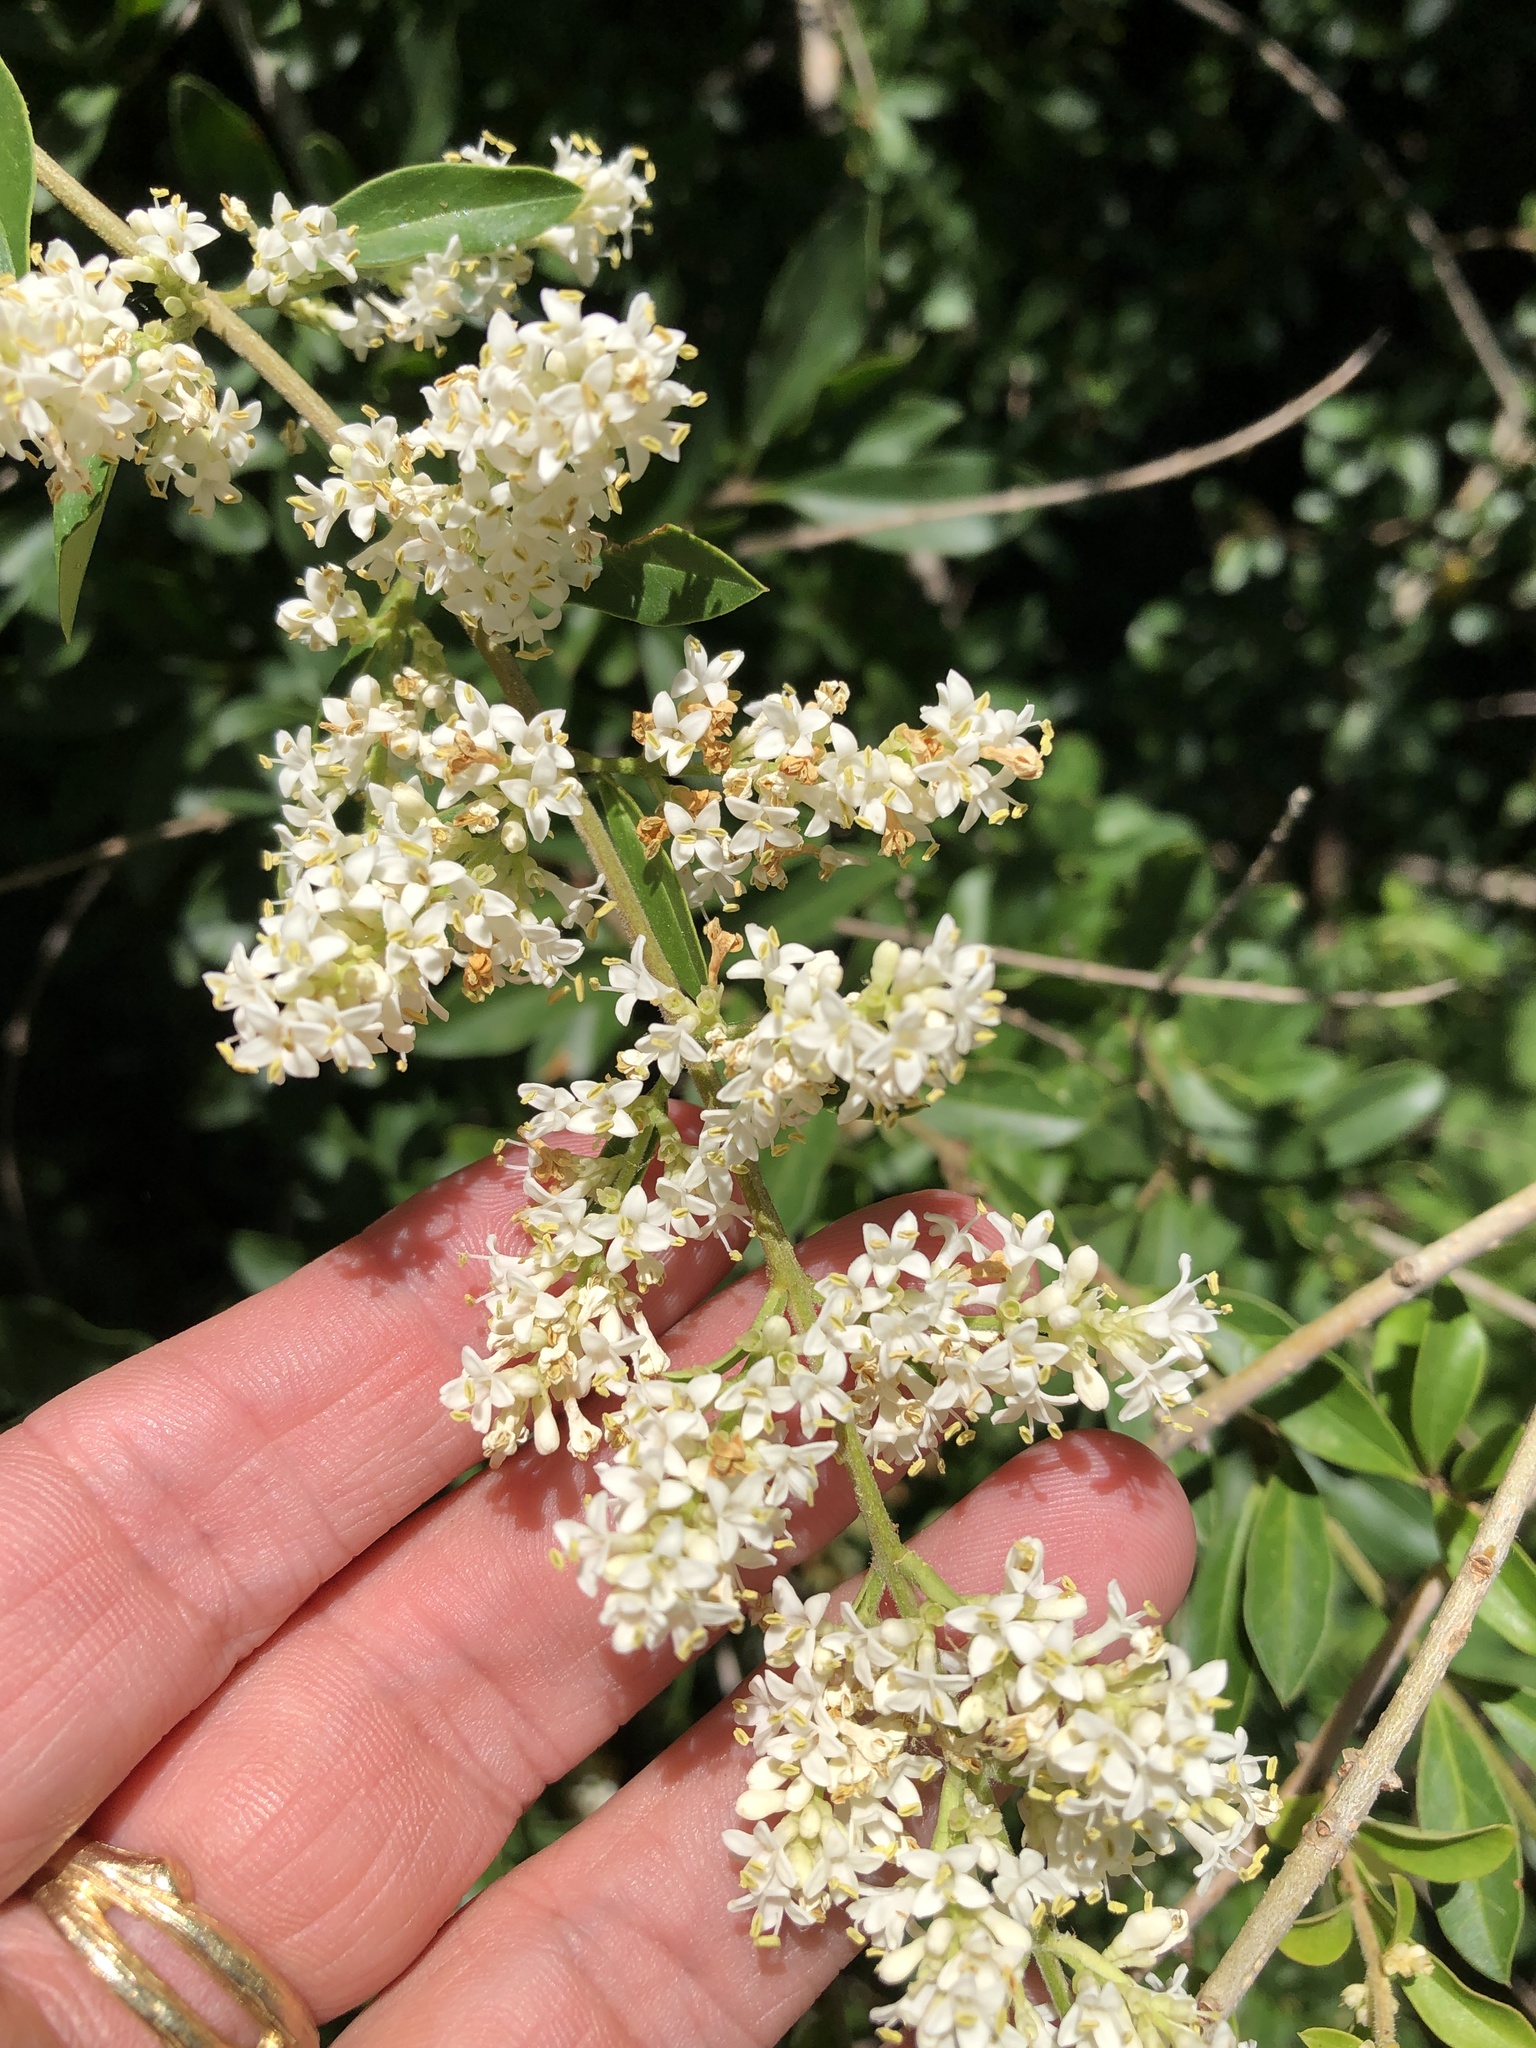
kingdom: Plantae
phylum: Tracheophyta
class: Magnoliopsida
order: Lamiales
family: Oleaceae
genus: Ligustrum
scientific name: Ligustrum quihoui
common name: Waxyleaf privet
